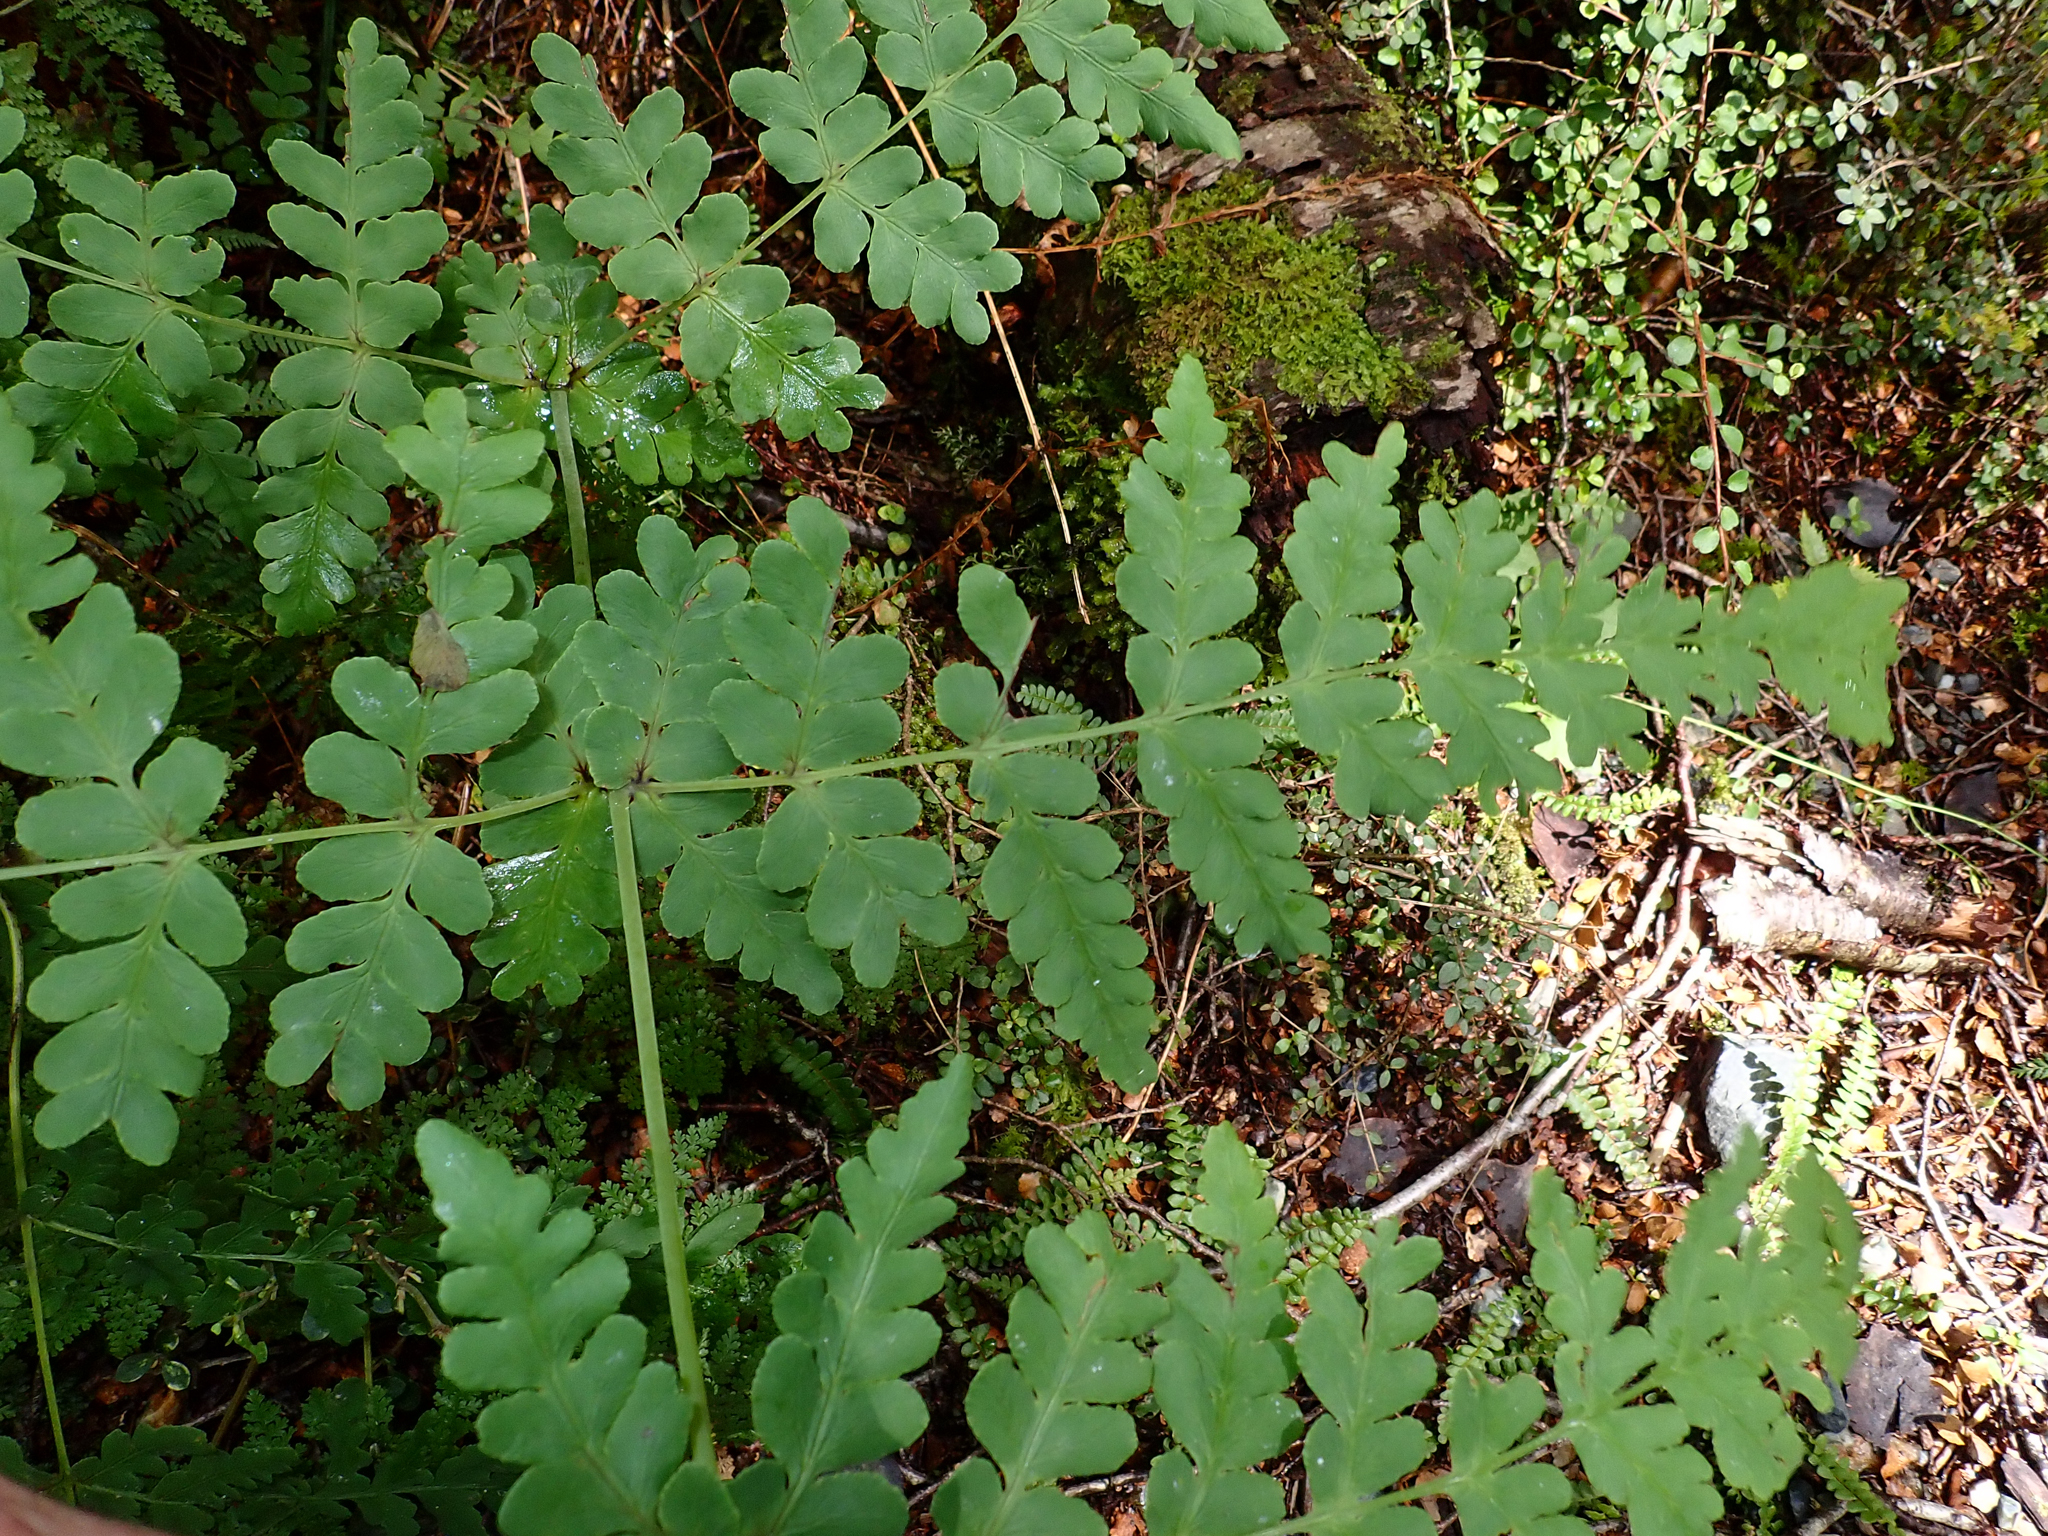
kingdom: Plantae
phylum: Tracheophyta
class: Polypodiopsida
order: Polypodiales
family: Dennstaedtiaceae
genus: Histiopteris
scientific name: Histiopteris incisa
